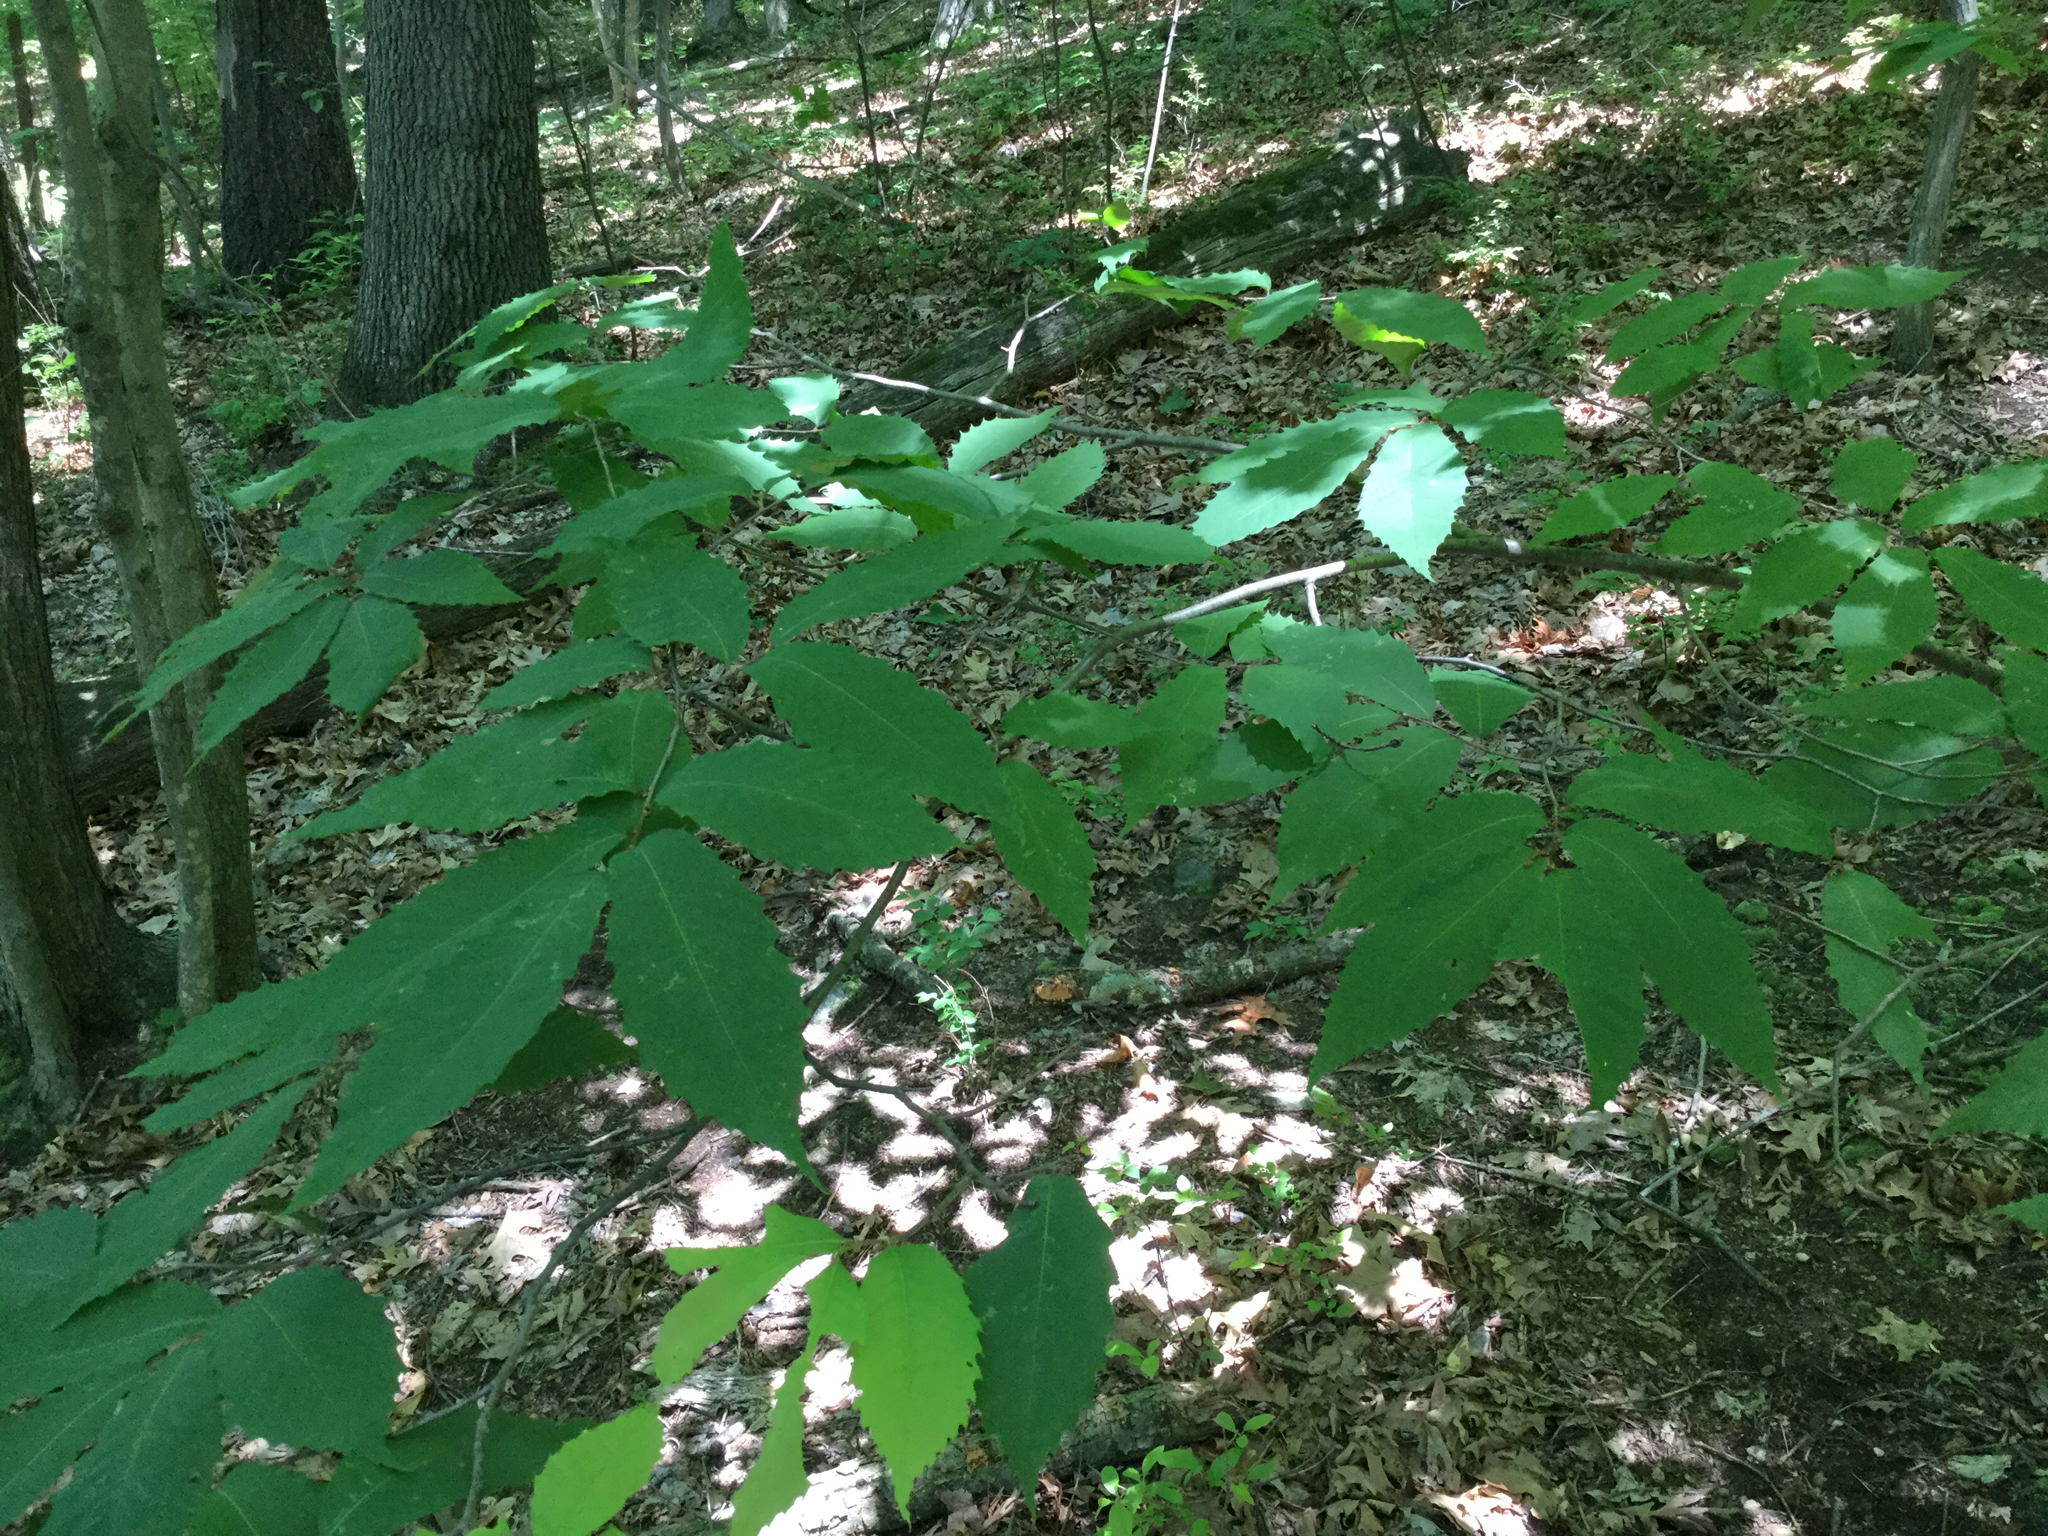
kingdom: Plantae
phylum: Tracheophyta
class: Magnoliopsida
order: Fagales
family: Fagaceae
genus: Castanea
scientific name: Castanea dentata
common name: American chestnut
